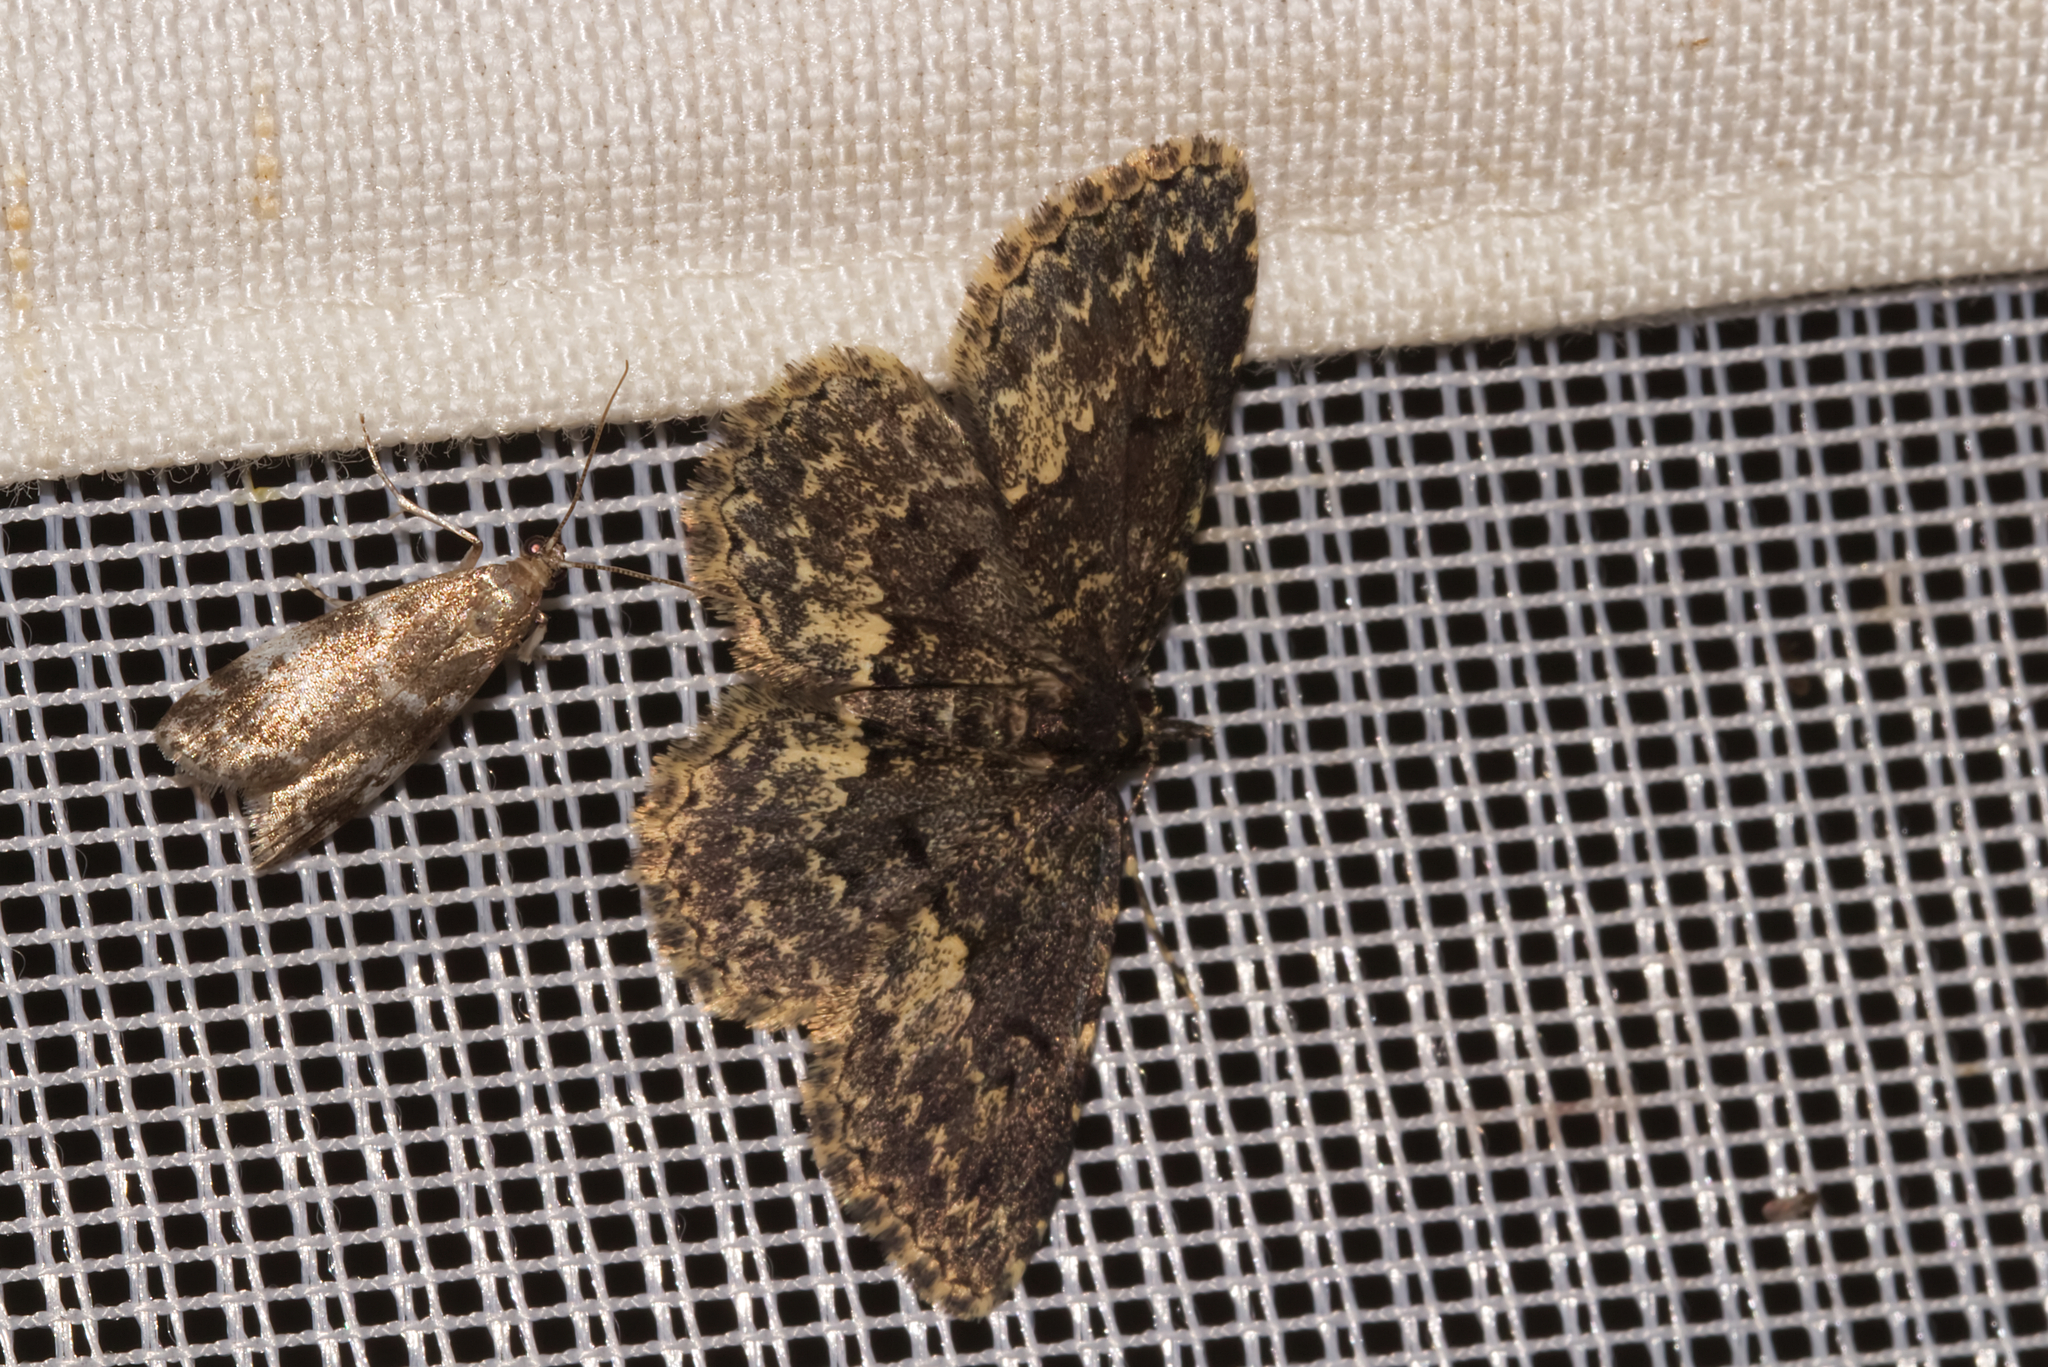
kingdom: Animalia
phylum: Arthropoda
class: Insecta
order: Lepidoptera
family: Erebidae
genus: Parascotia
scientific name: Parascotia fuliginaria
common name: Waved black
